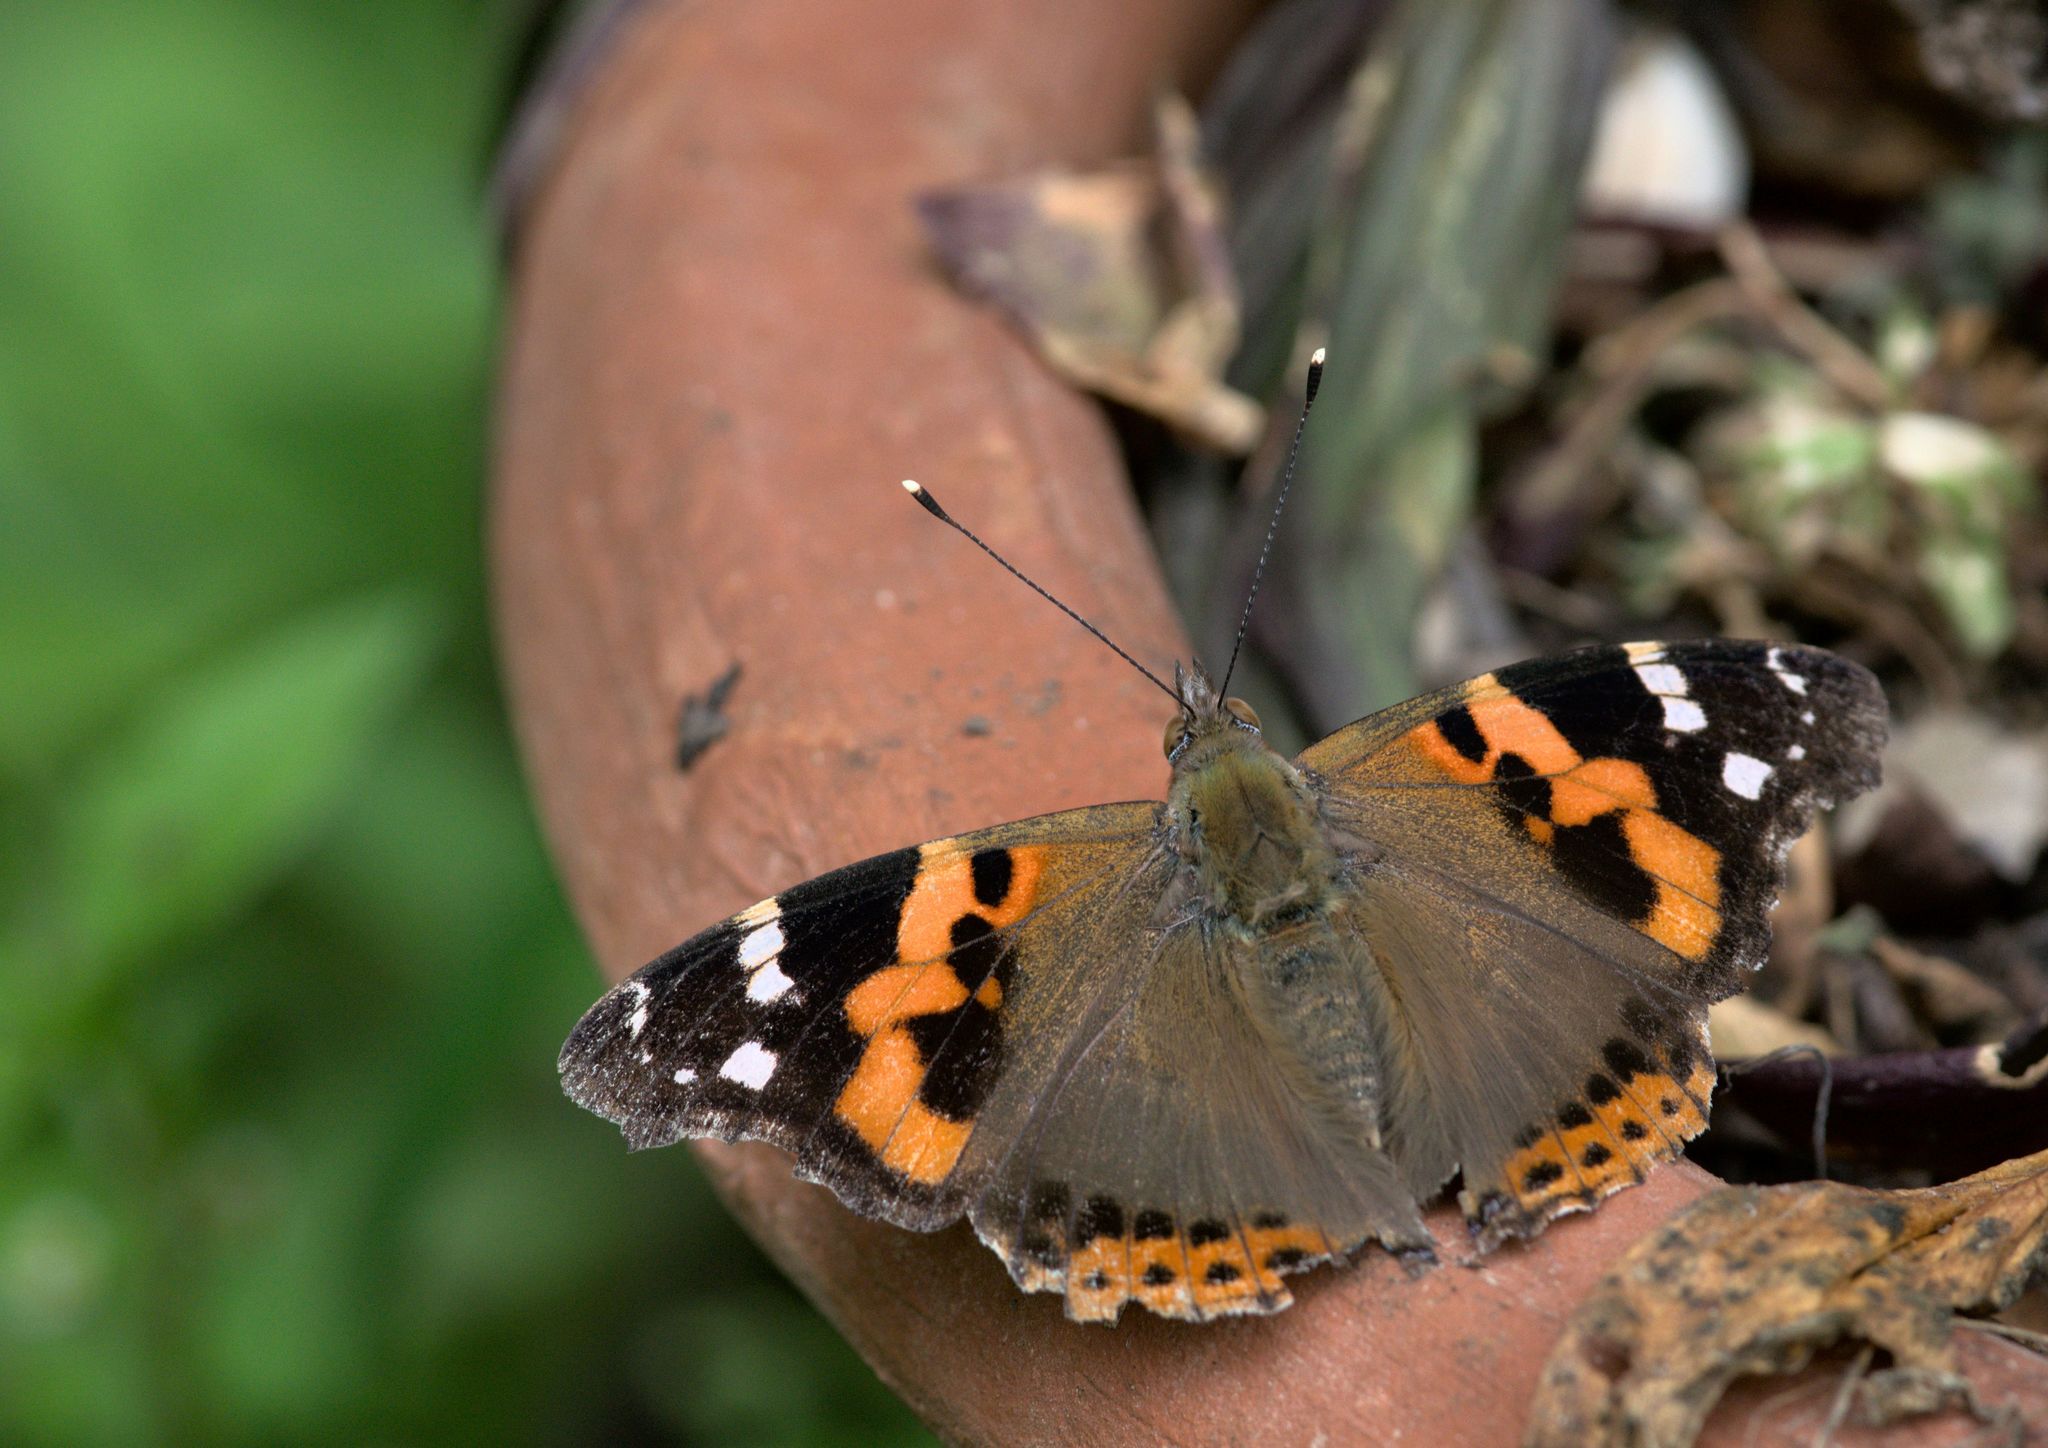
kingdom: Animalia
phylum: Arthropoda
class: Insecta
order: Lepidoptera
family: Nymphalidae
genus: Vanessa
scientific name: Vanessa indica
